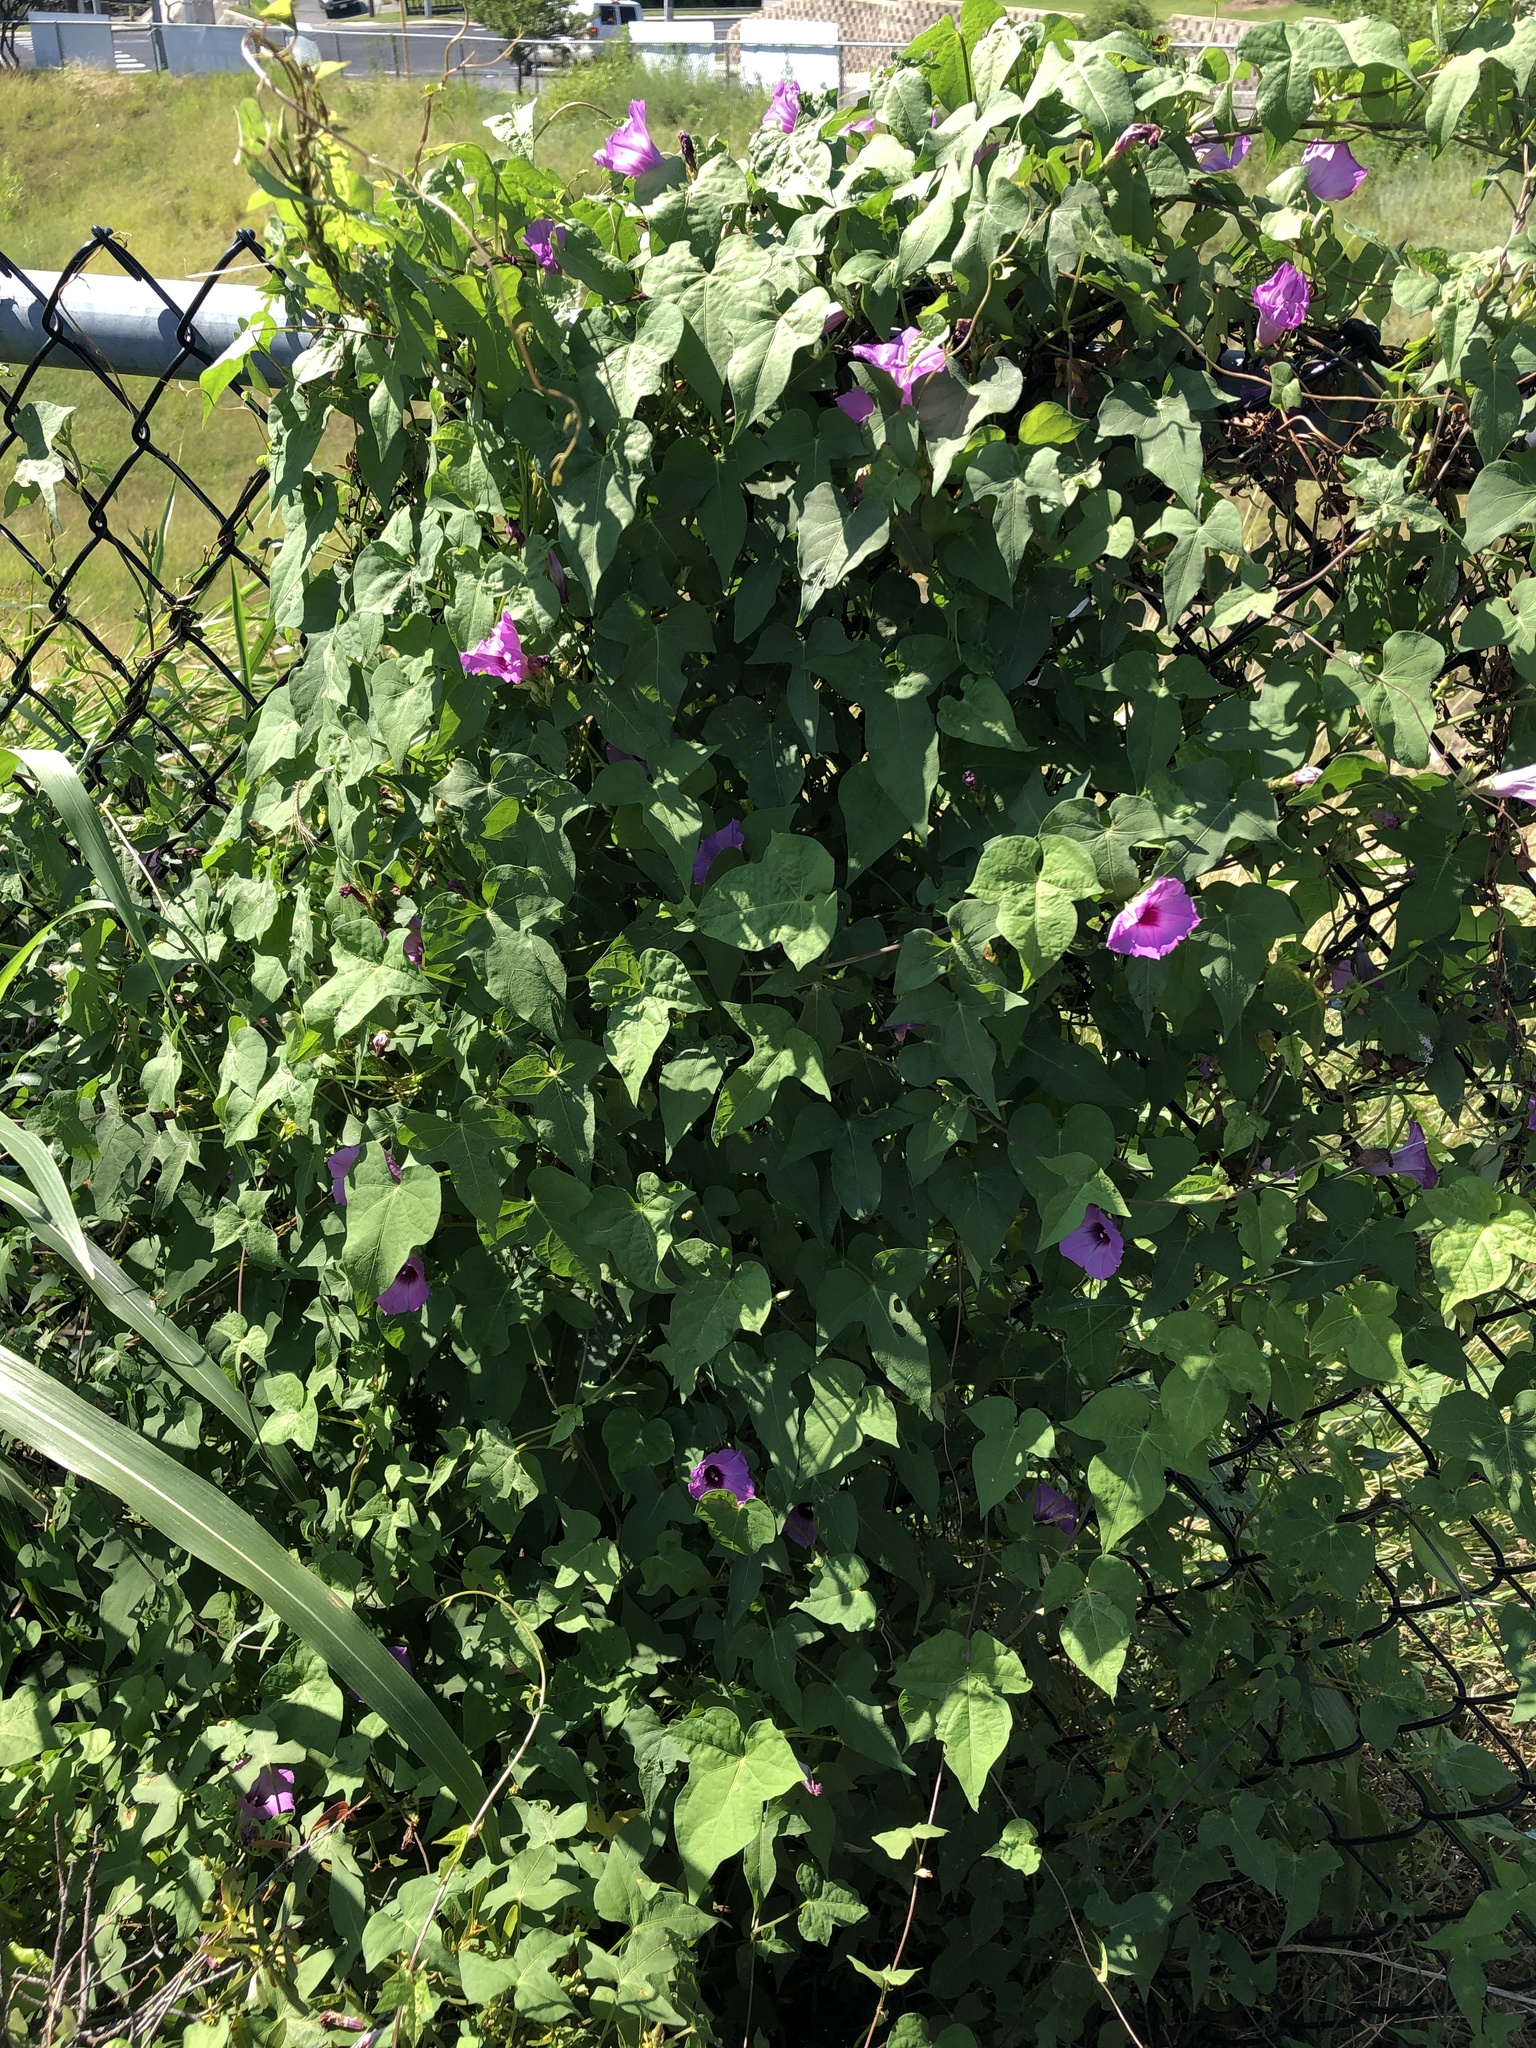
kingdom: Plantae
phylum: Tracheophyta
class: Magnoliopsida
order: Solanales
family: Convolvulaceae
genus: Ipomoea
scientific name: Ipomoea cordatotriloba
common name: Cotton morning glory
